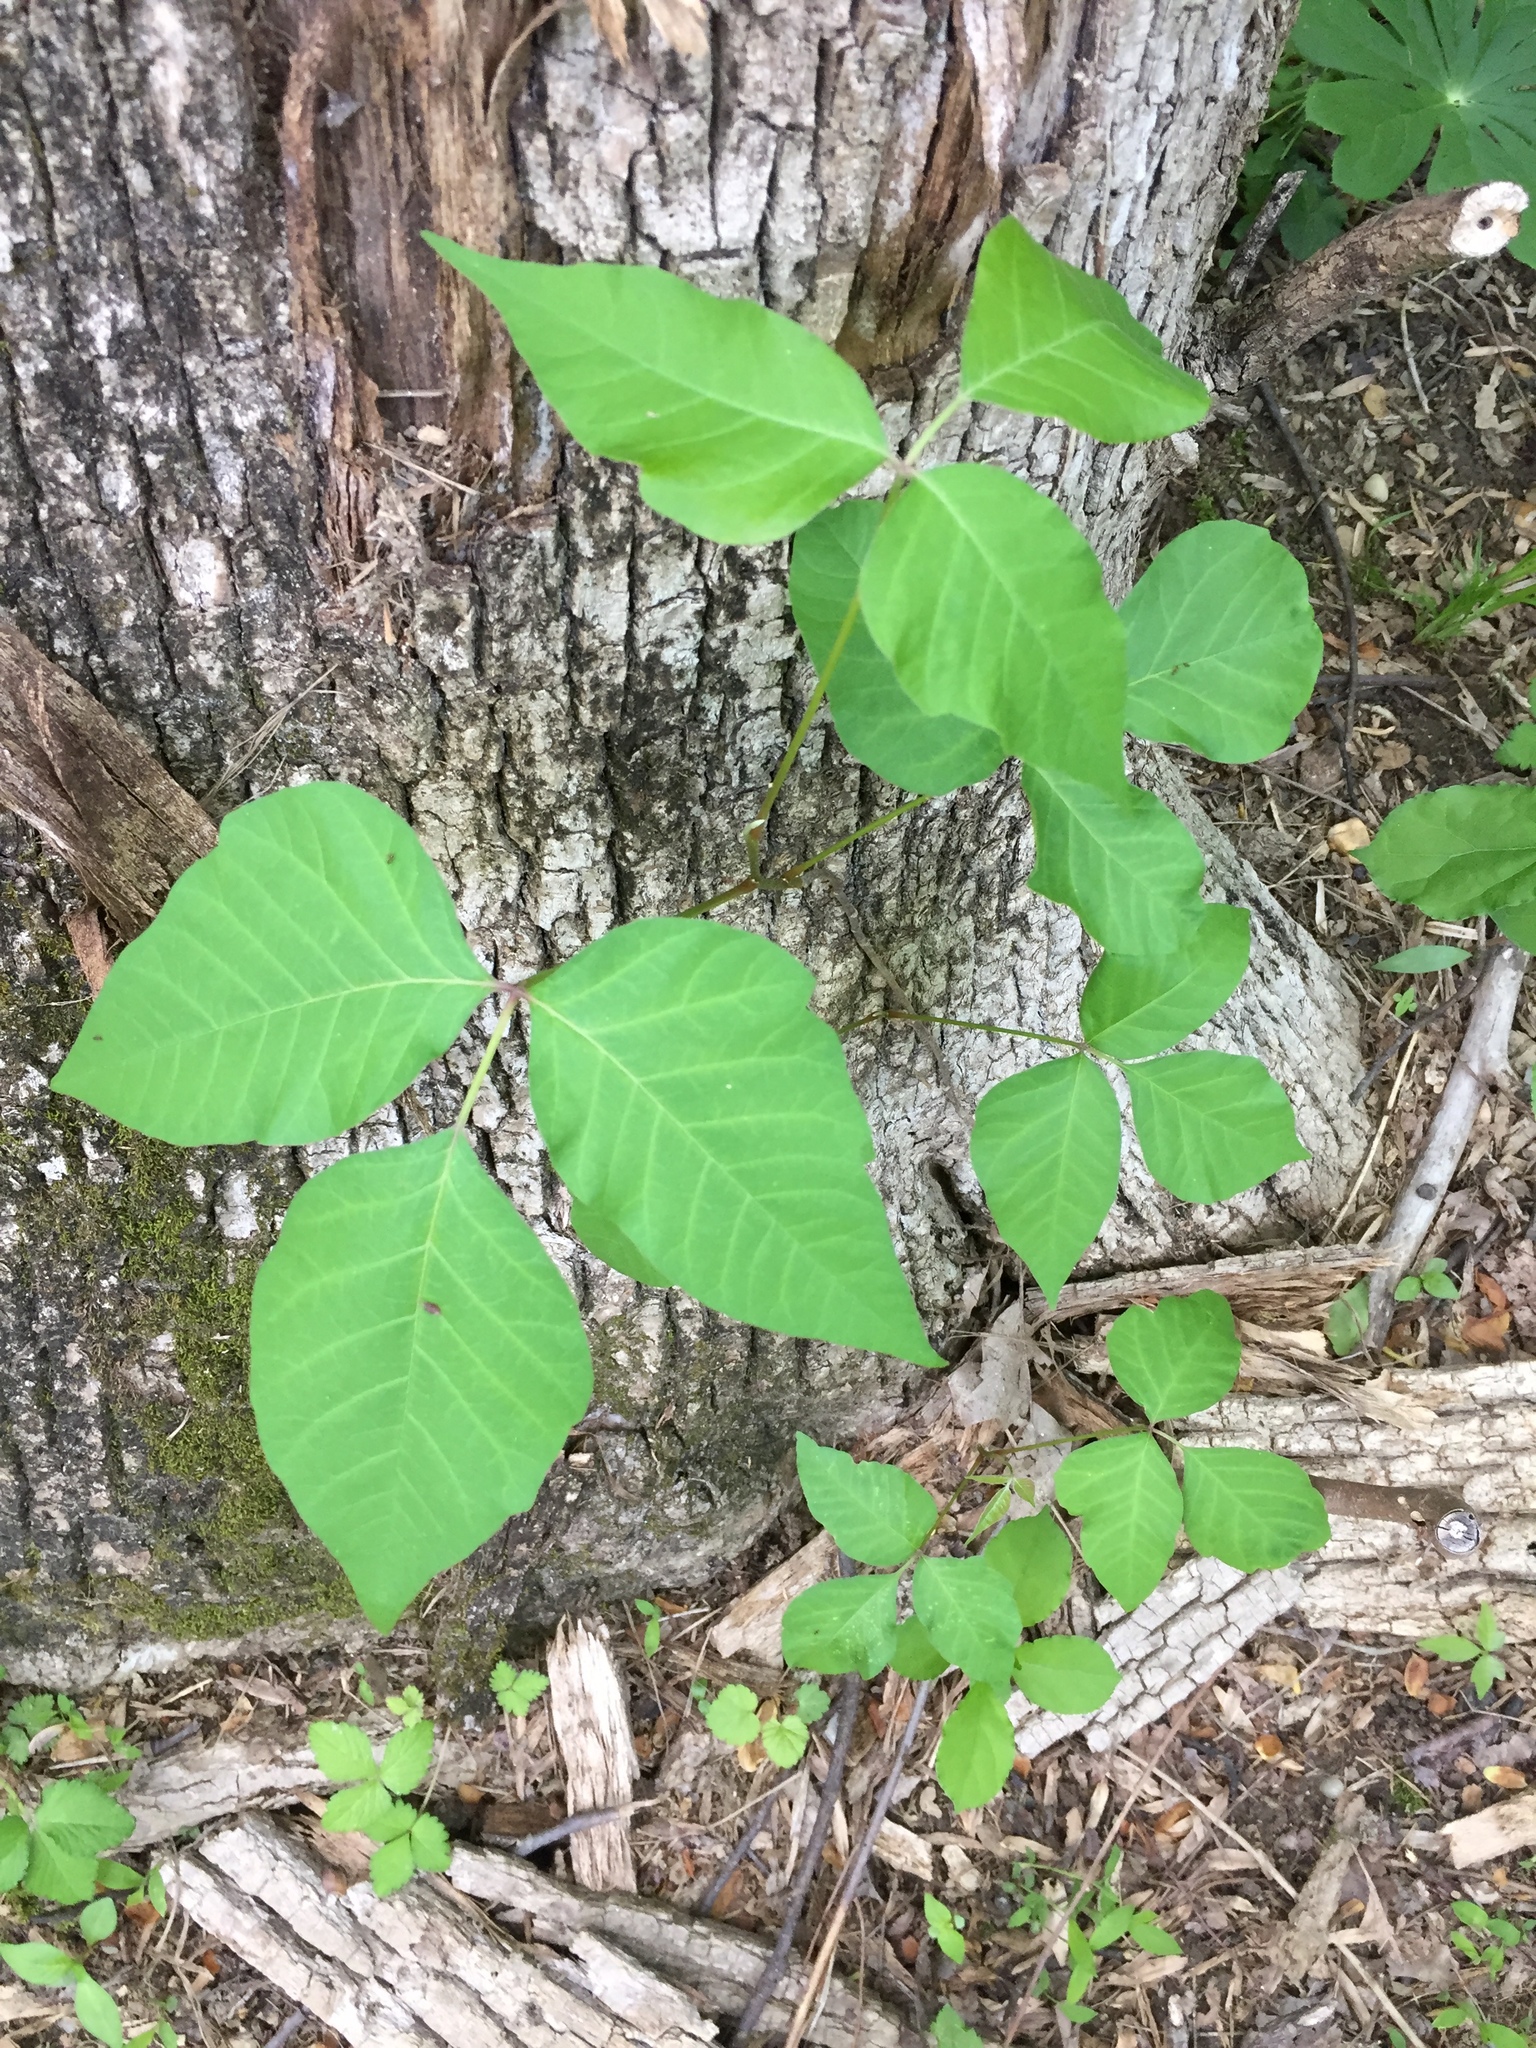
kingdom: Plantae
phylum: Tracheophyta
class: Magnoliopsida
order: Sapindales
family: Anacardiaceae
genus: Toxicodendron
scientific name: Toxicodendron radicans
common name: Poison ivy
